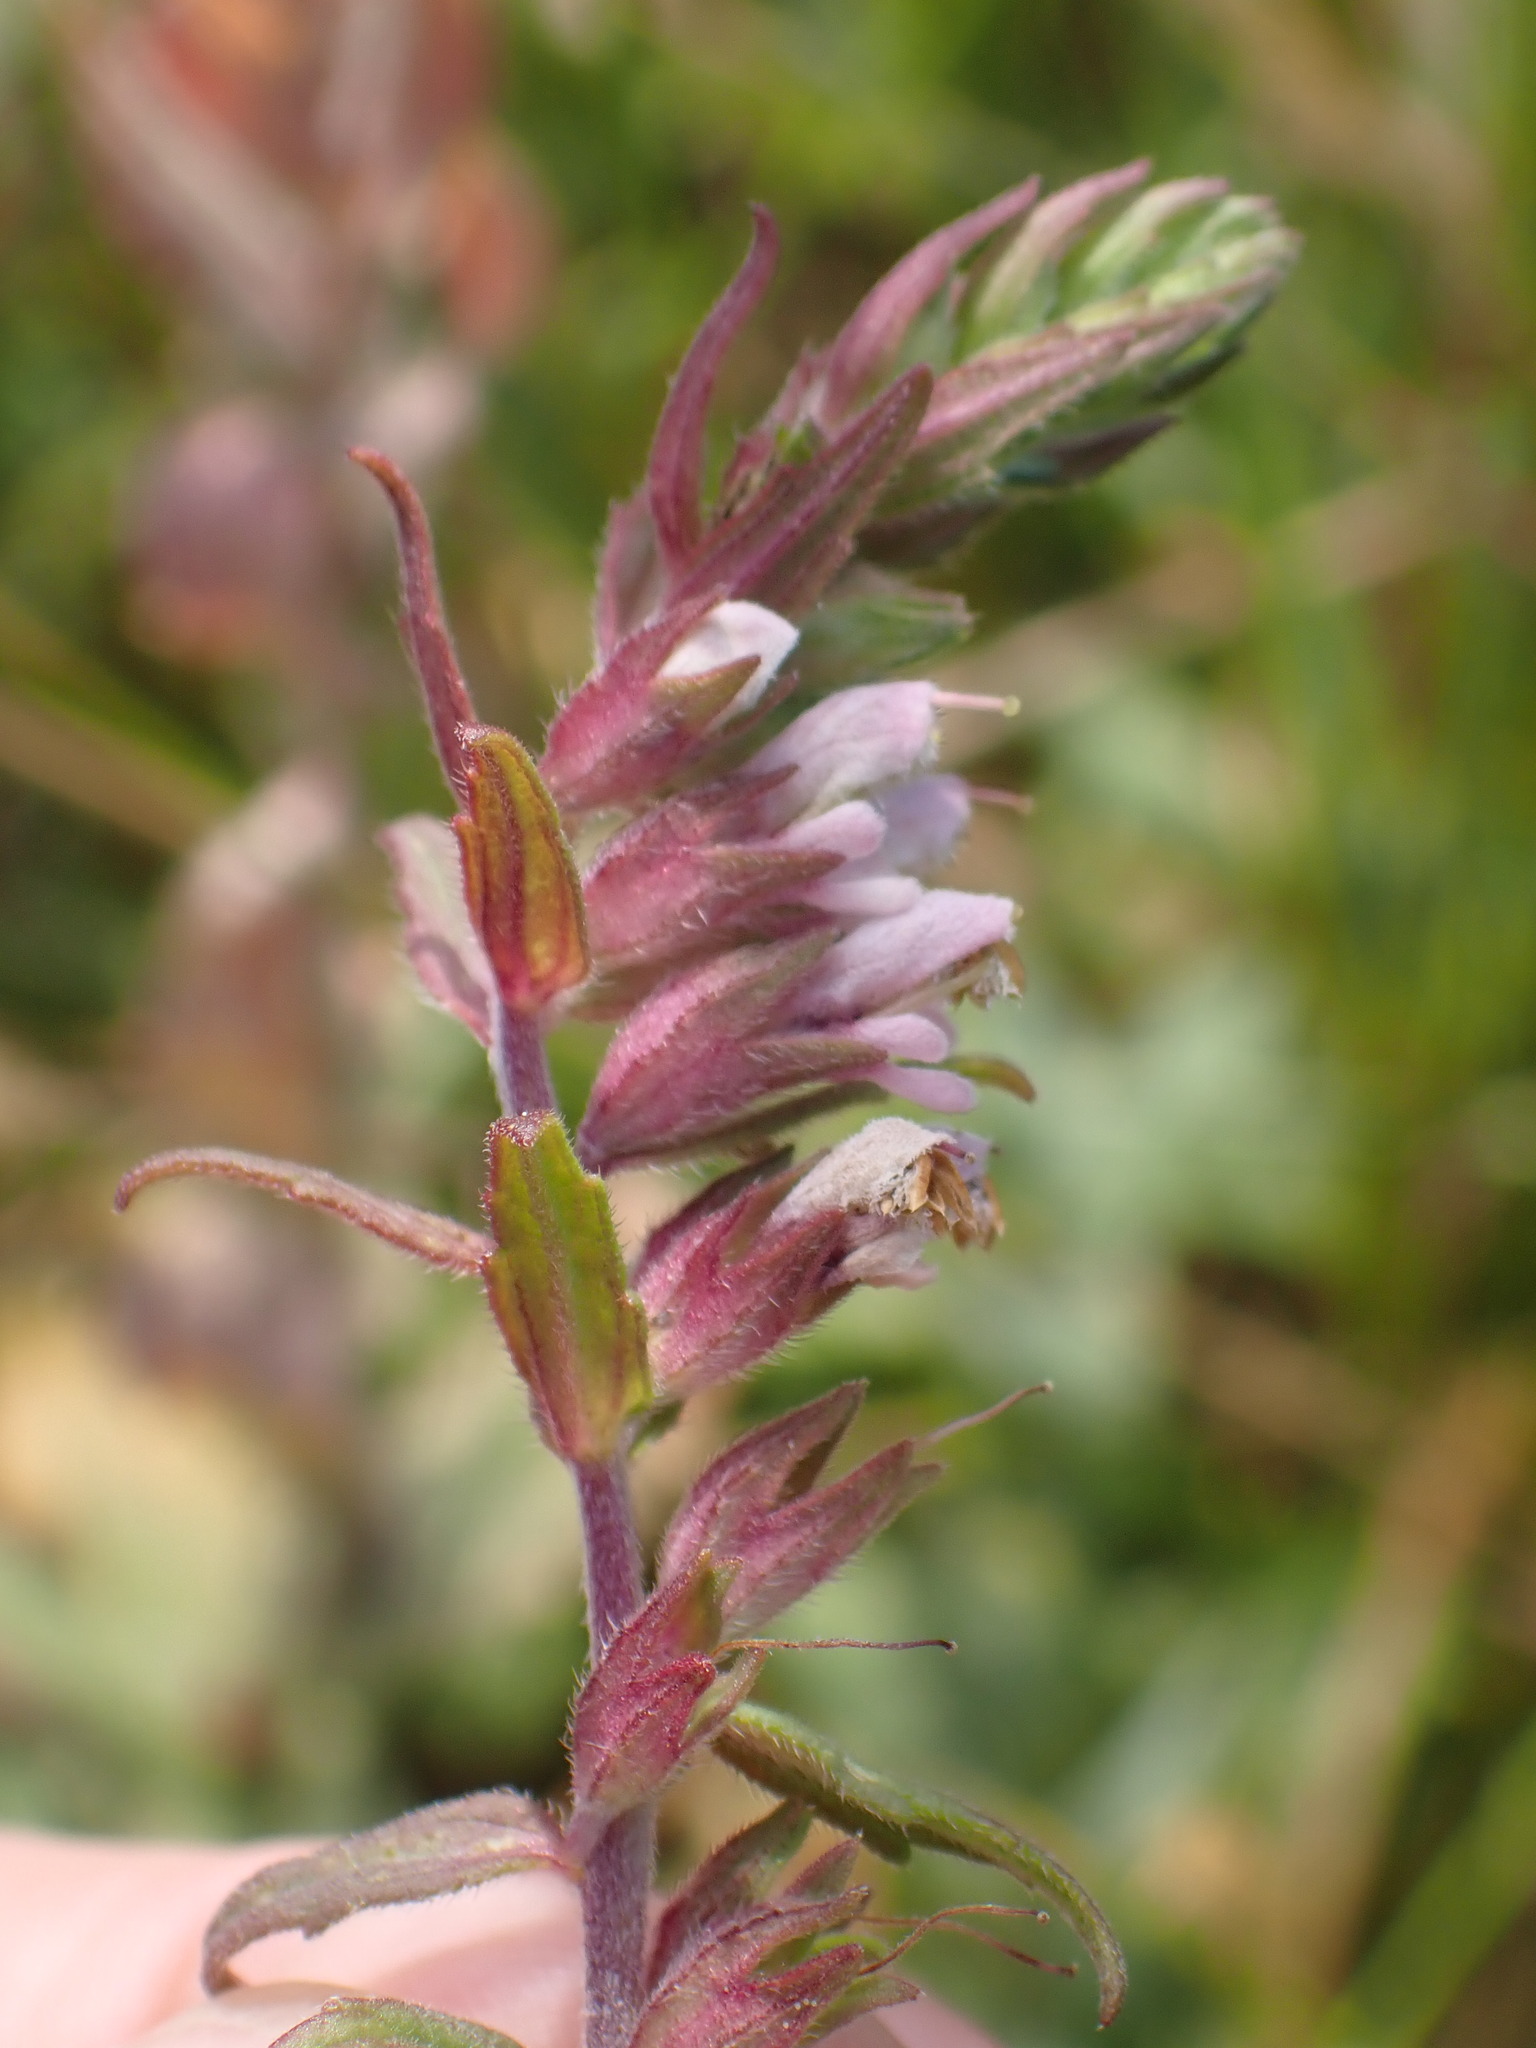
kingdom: Plantae
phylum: Tracheophyta
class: Magnoliopsida
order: Lamiales
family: Orobanchaceae
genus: Odontites
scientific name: Odontites vulgaris
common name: Broomrape
